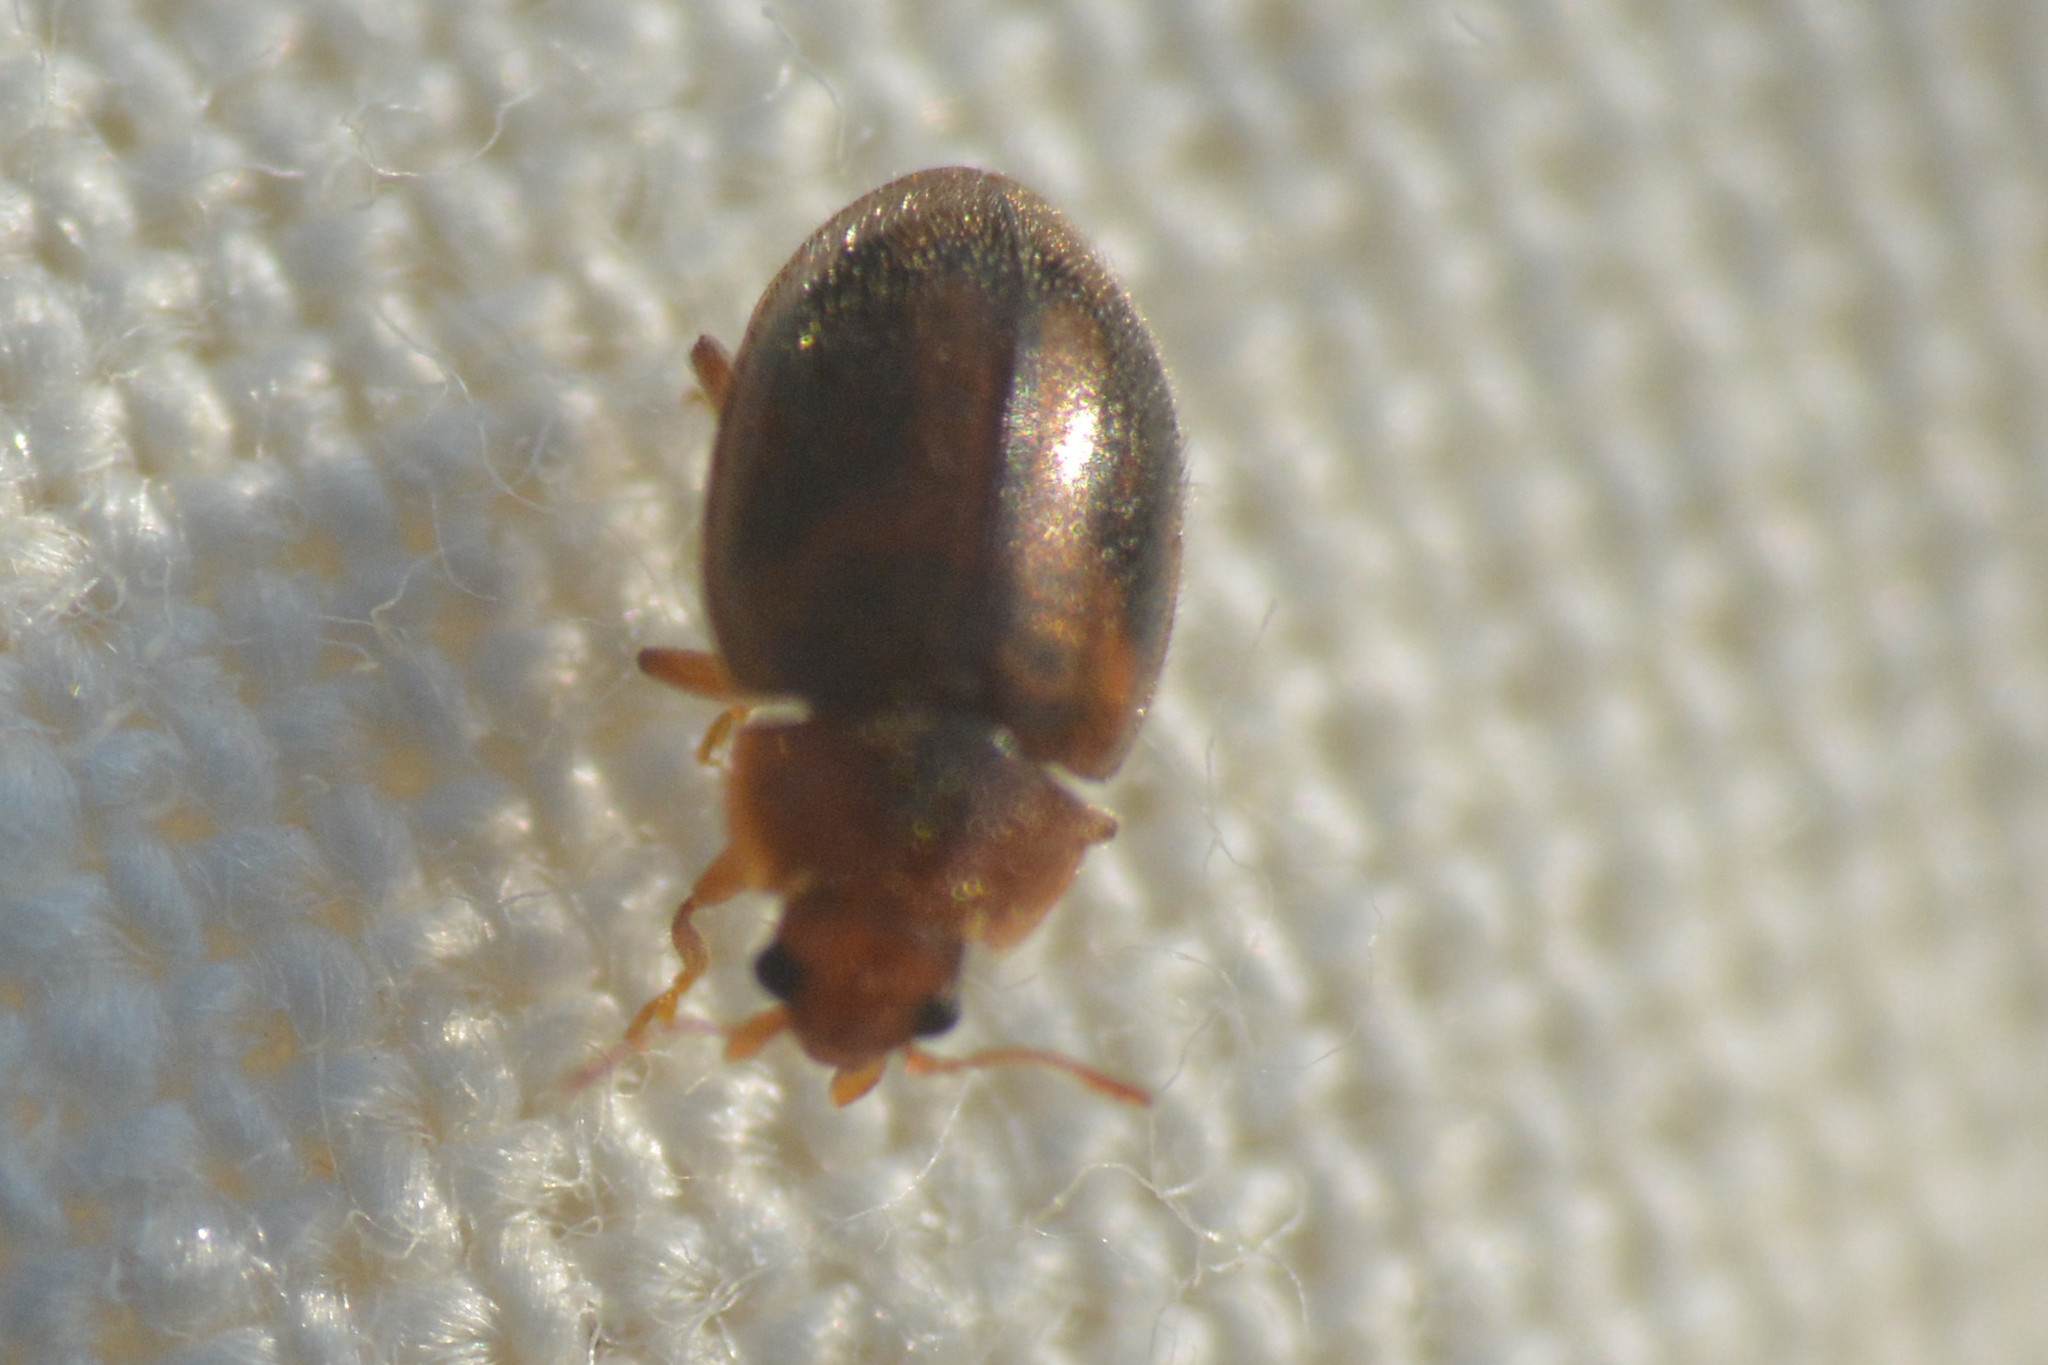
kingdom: Animalia
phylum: Arthropoda
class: Insecta
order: Coleoptera
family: Coccinellidae
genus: Rhyzobius
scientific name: Rhyzobius chrysomeloides
